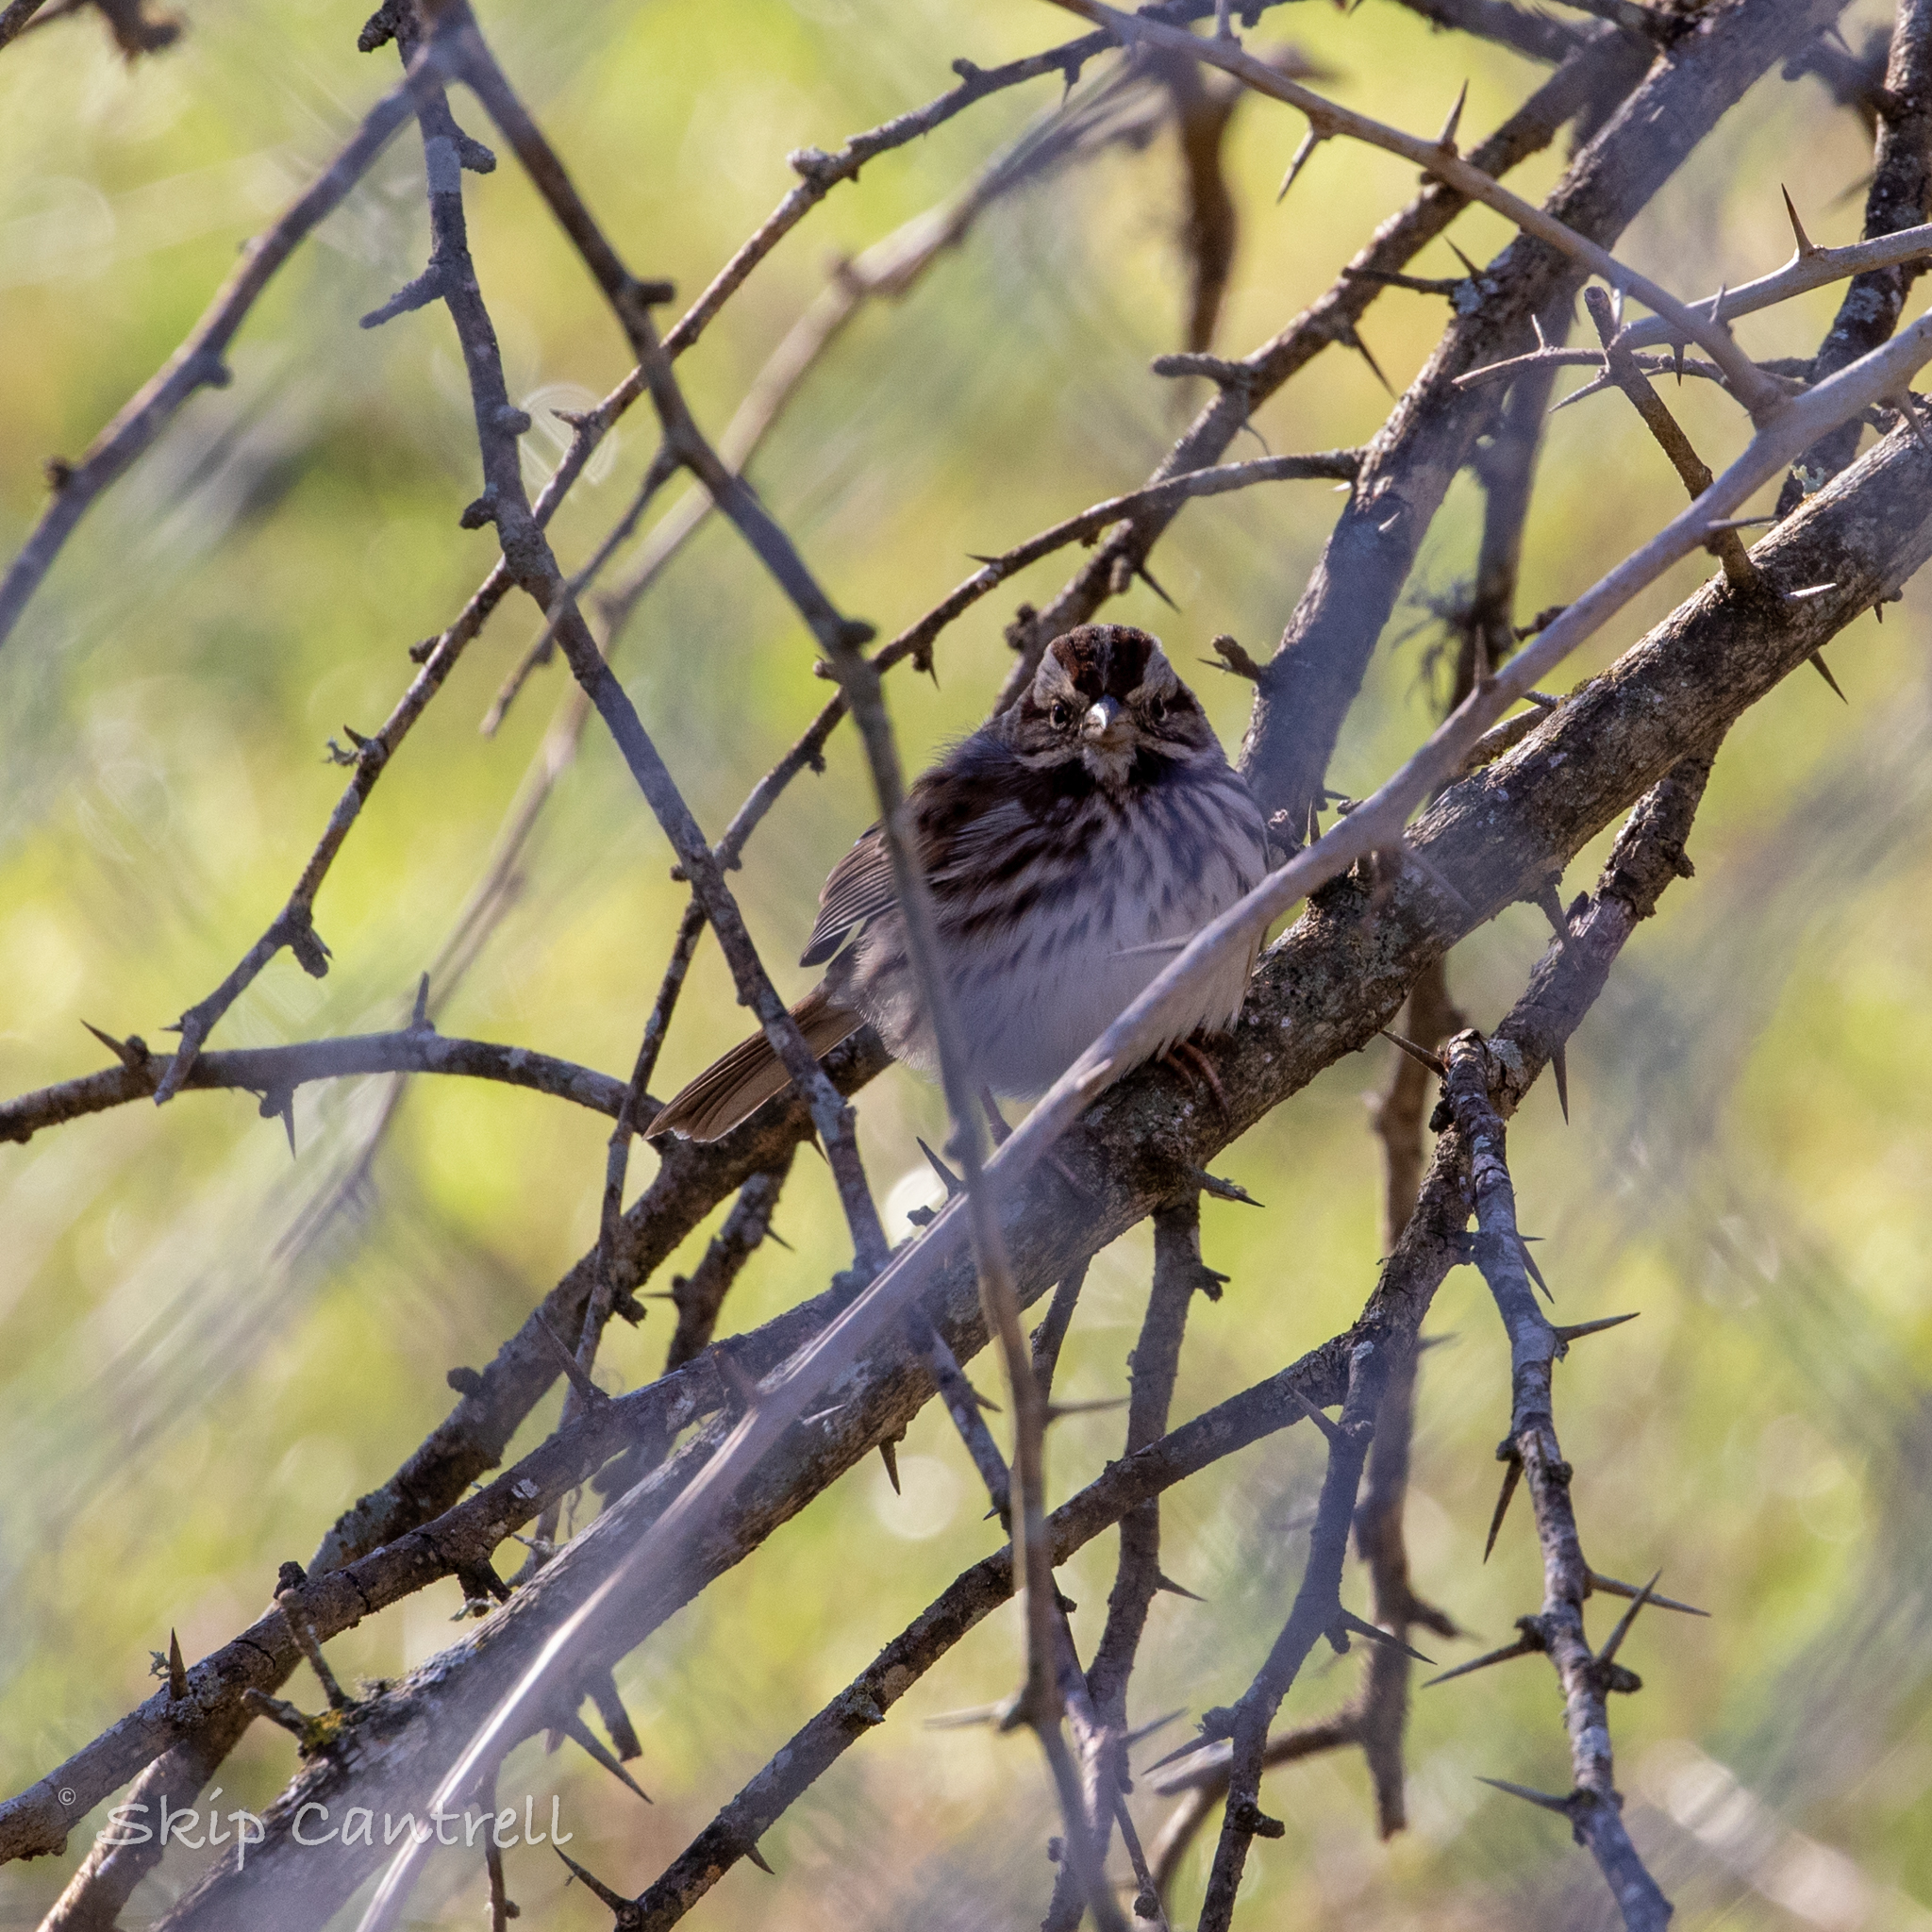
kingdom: Animalia
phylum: Chordata
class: Aves
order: Passeriformes
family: Passerellidae
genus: Melospiza
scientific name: Melospiza melodia
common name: Song sparrow
